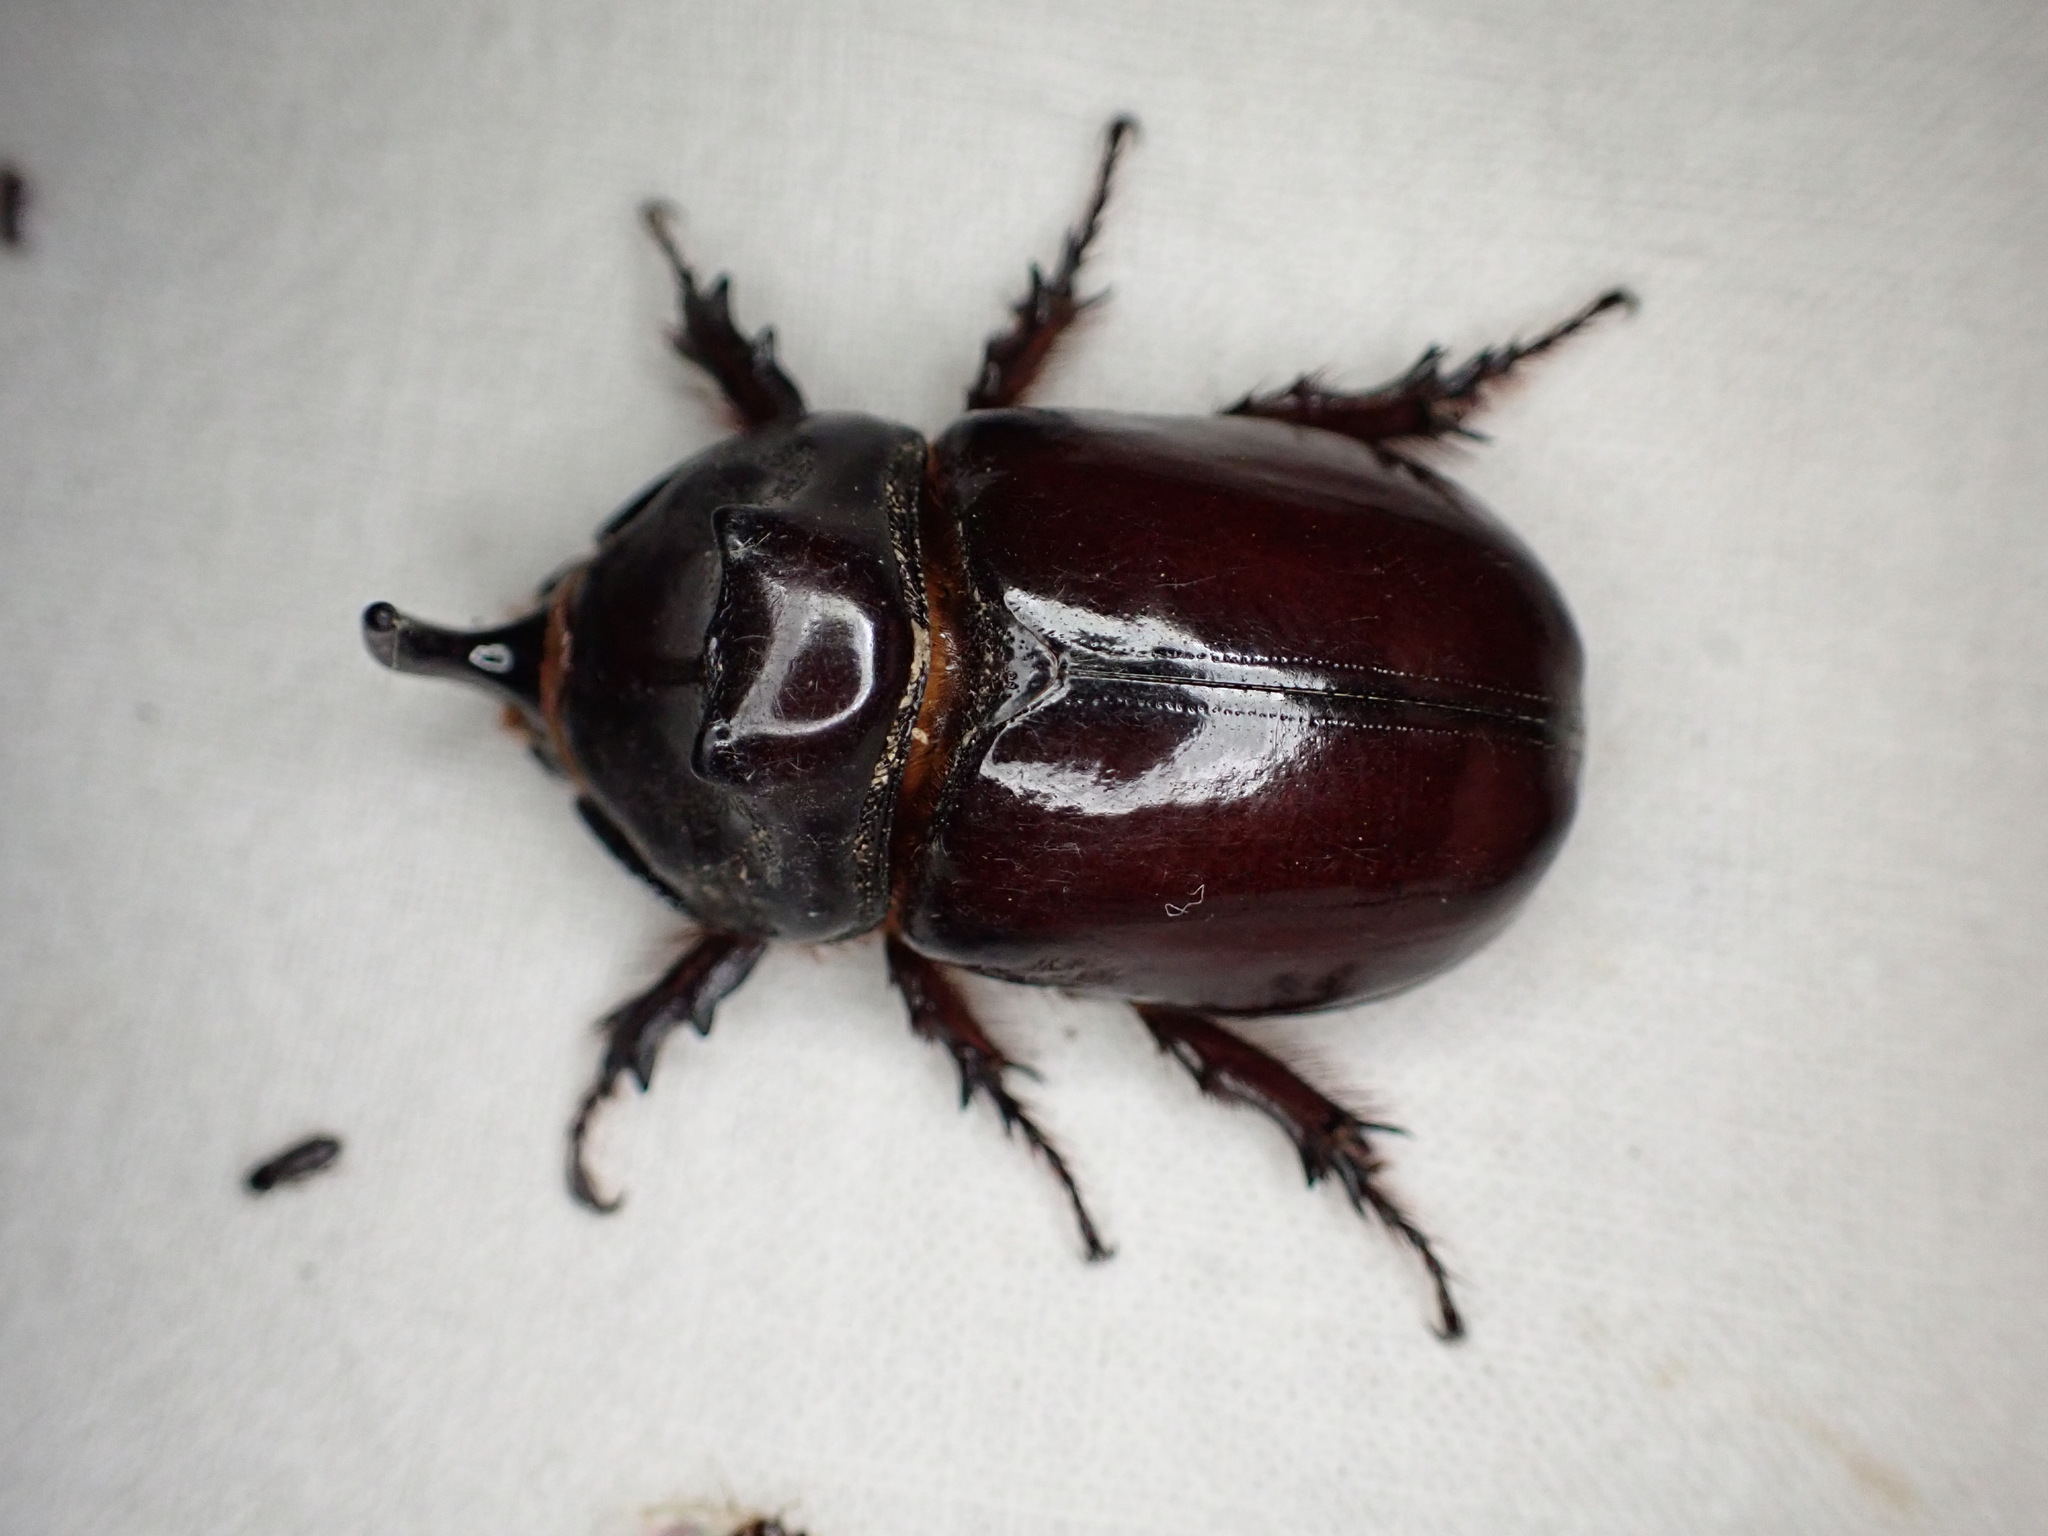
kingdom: Animalia
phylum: Arthropoda
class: Insecta
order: Coleoptera
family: Scarabaeidae
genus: Oryctes
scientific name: Oryctes nasicornis
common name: European rhinoceros beetle
